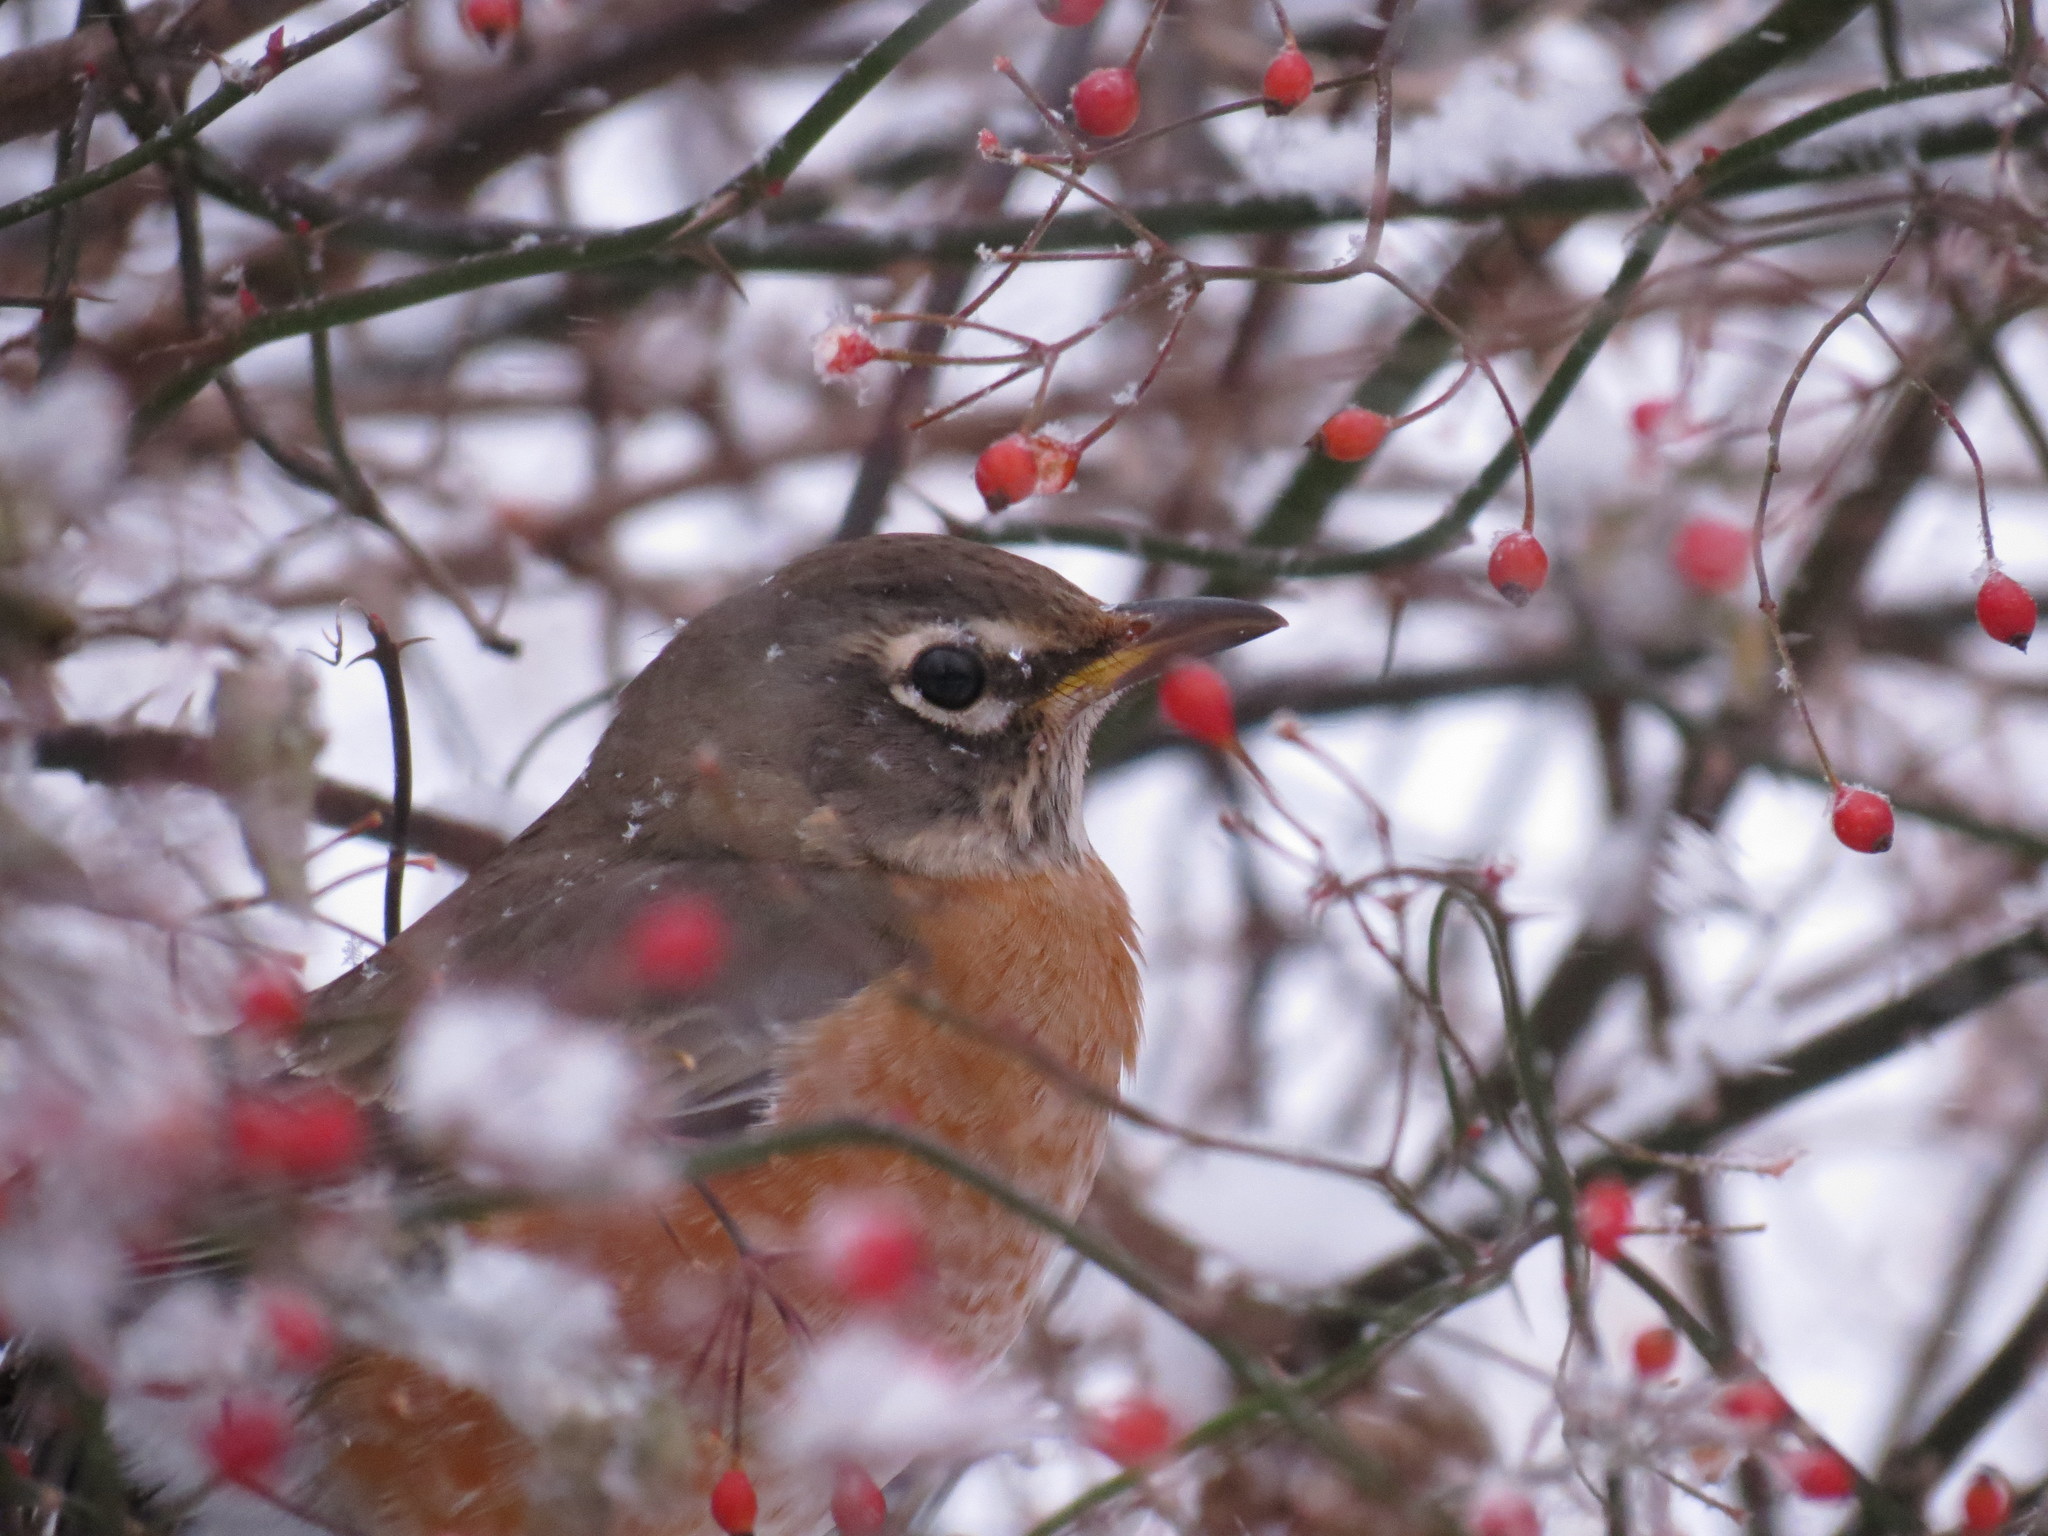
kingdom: Animalia
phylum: Chordata
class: Aves
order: Passeriformes
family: Turdidae
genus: Turdus
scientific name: Turdus migratorius
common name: American robin
